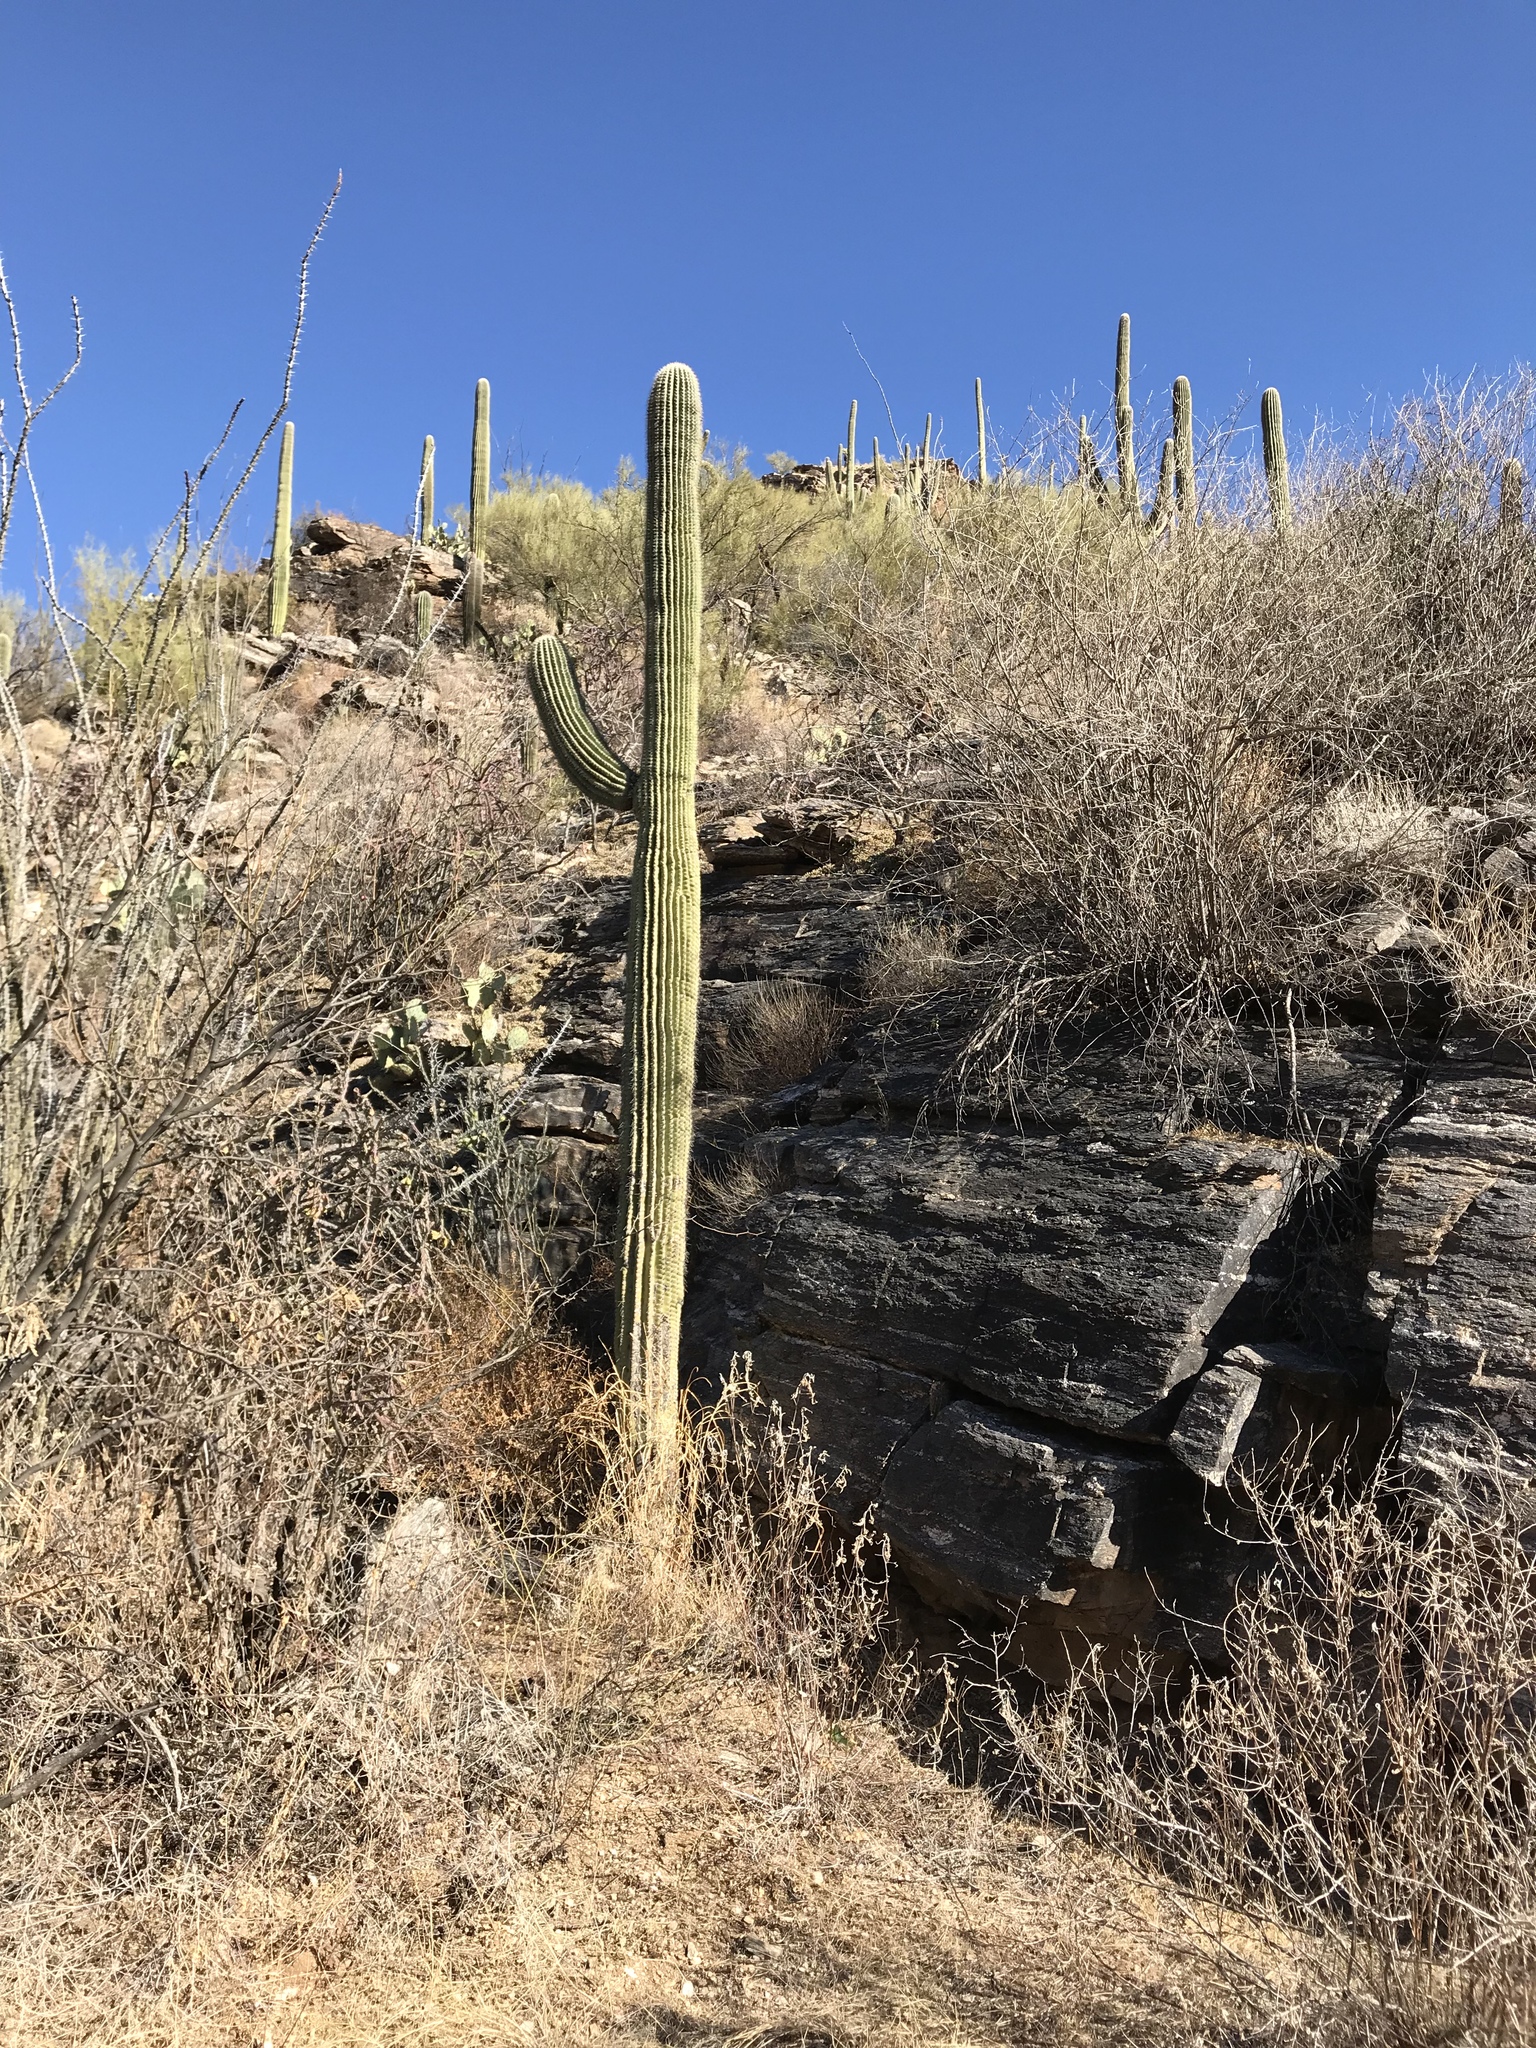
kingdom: Plantae
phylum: Tracheophyta
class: Magnoliopsida
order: Caryophyllales
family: Cactaceae
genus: Carnegiea
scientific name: Carnegiea gigantea
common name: Saguaro
